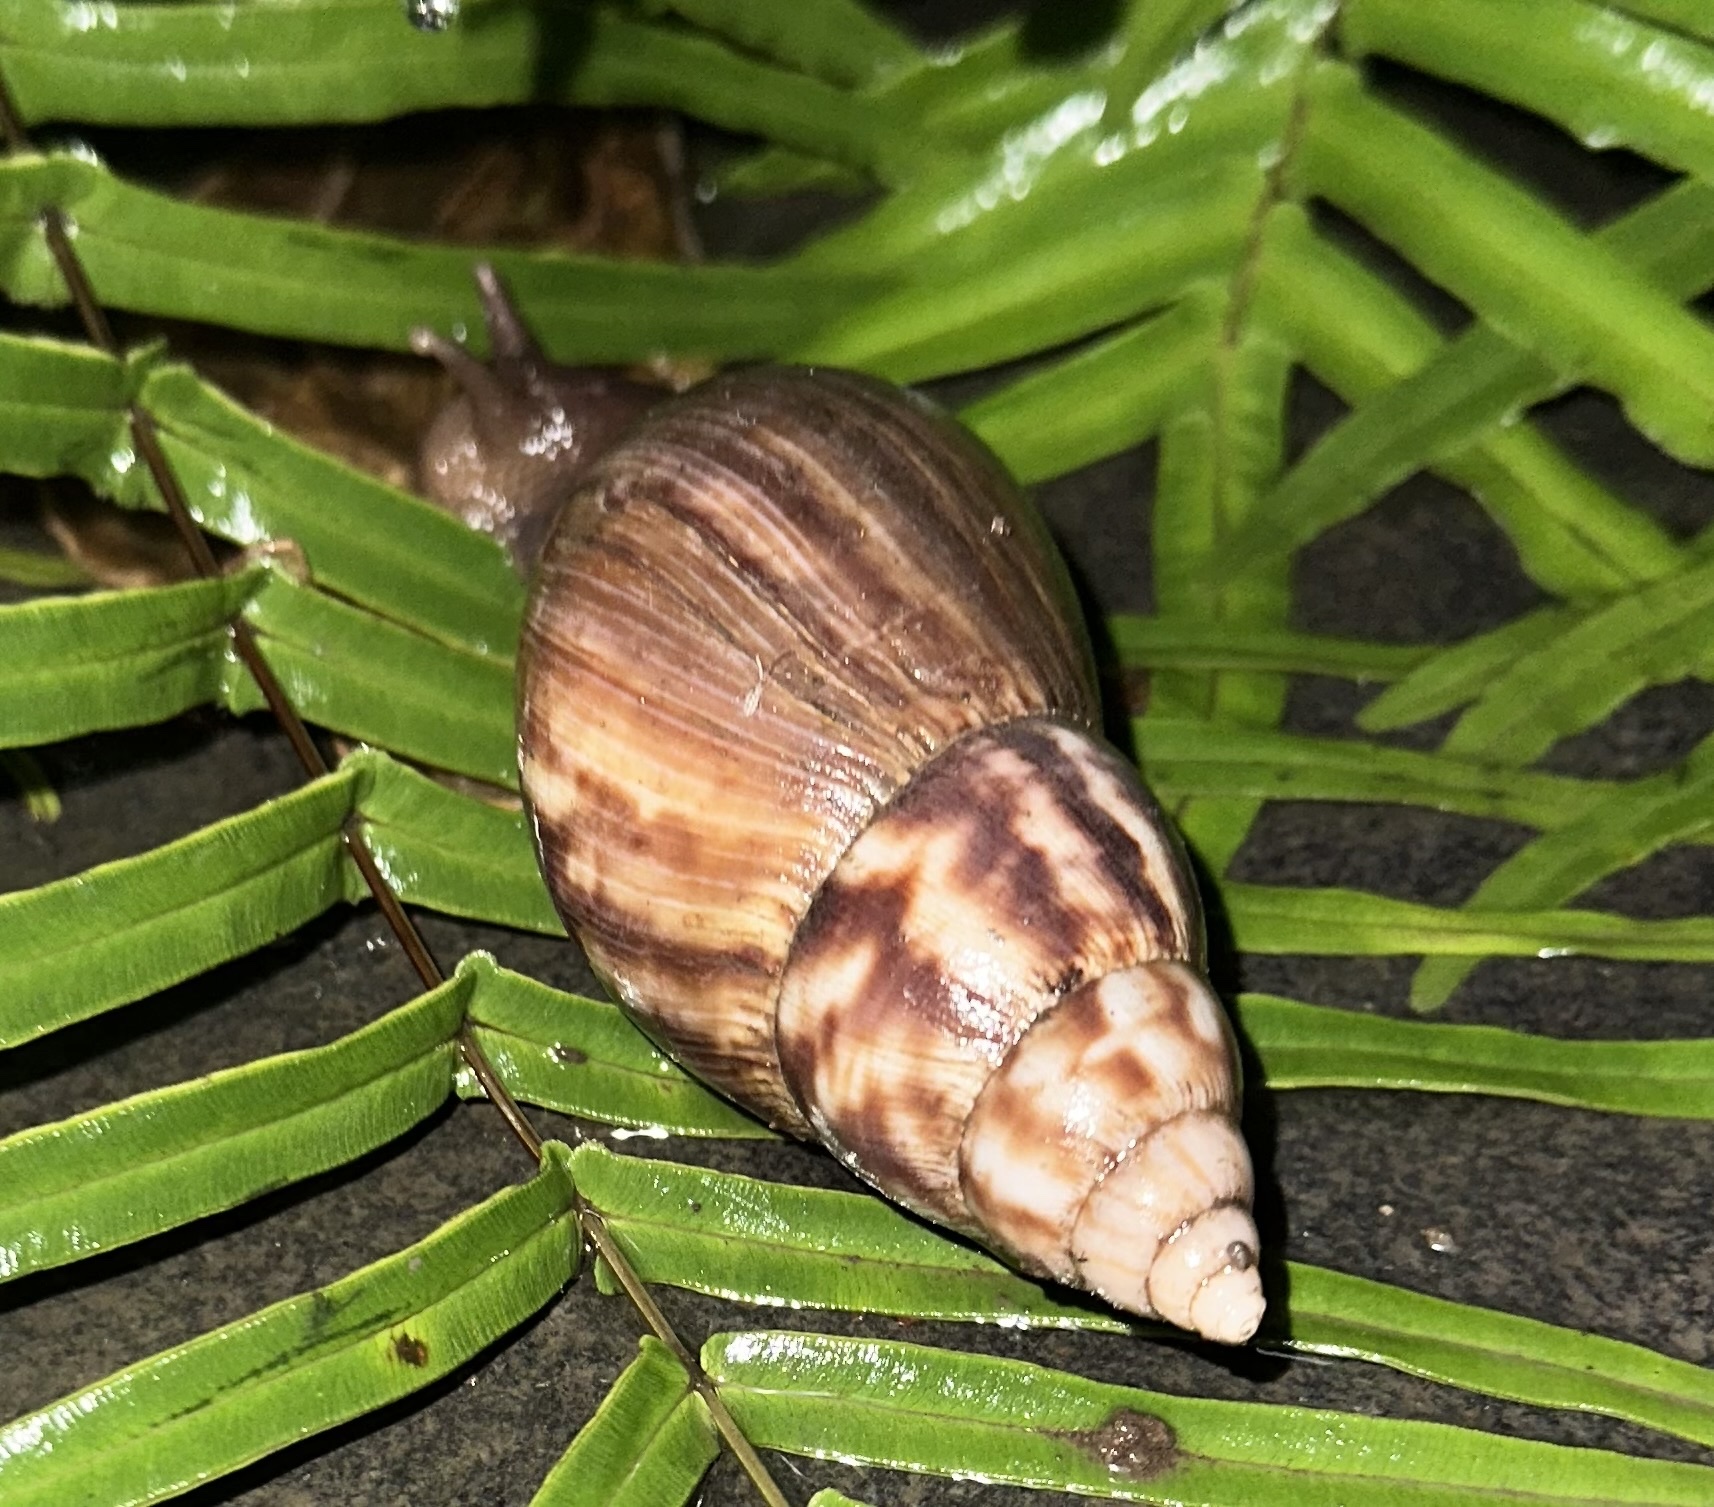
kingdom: Animalia
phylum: Mollusca
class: Gastropoda
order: Stylommatophora
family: Achatinidae
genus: Lissachatina
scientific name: Lissachatina fulica
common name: Giant african snail
